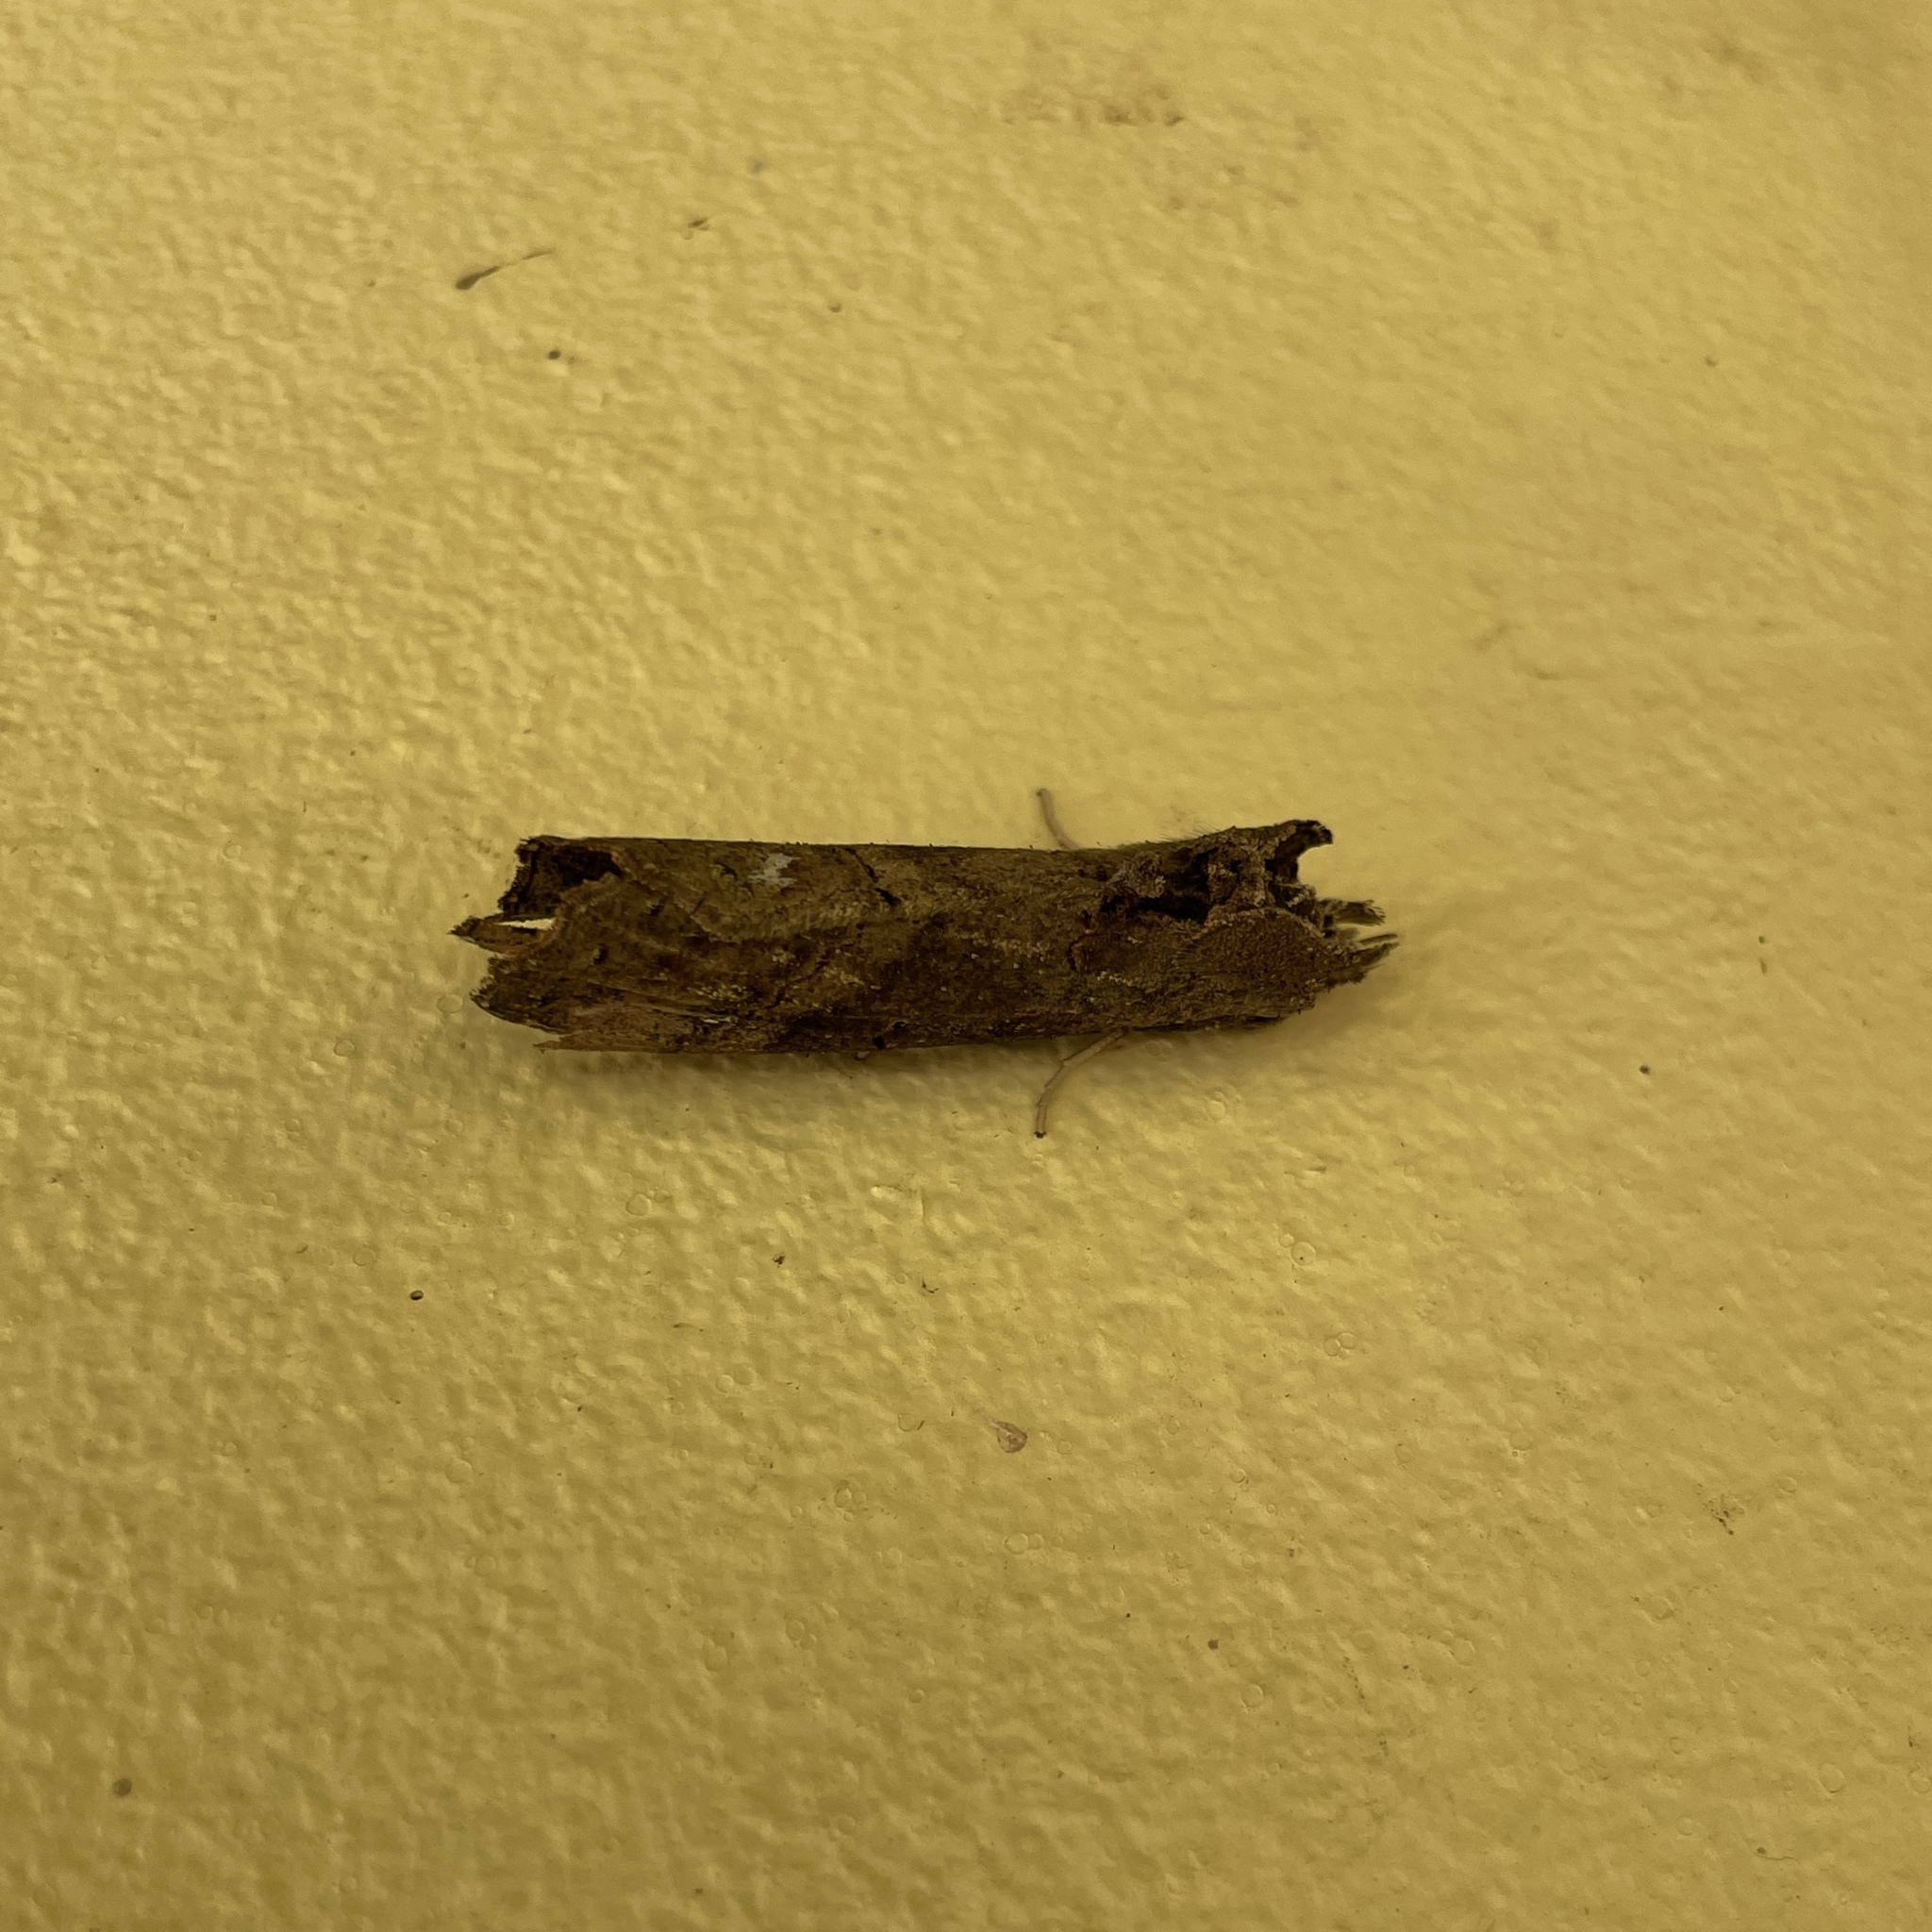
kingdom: Animalia
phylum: Arthropoda
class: Insecta
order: Lepidoptera
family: Notodontidae
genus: Bardaxima
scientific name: Bardaxima marcida
